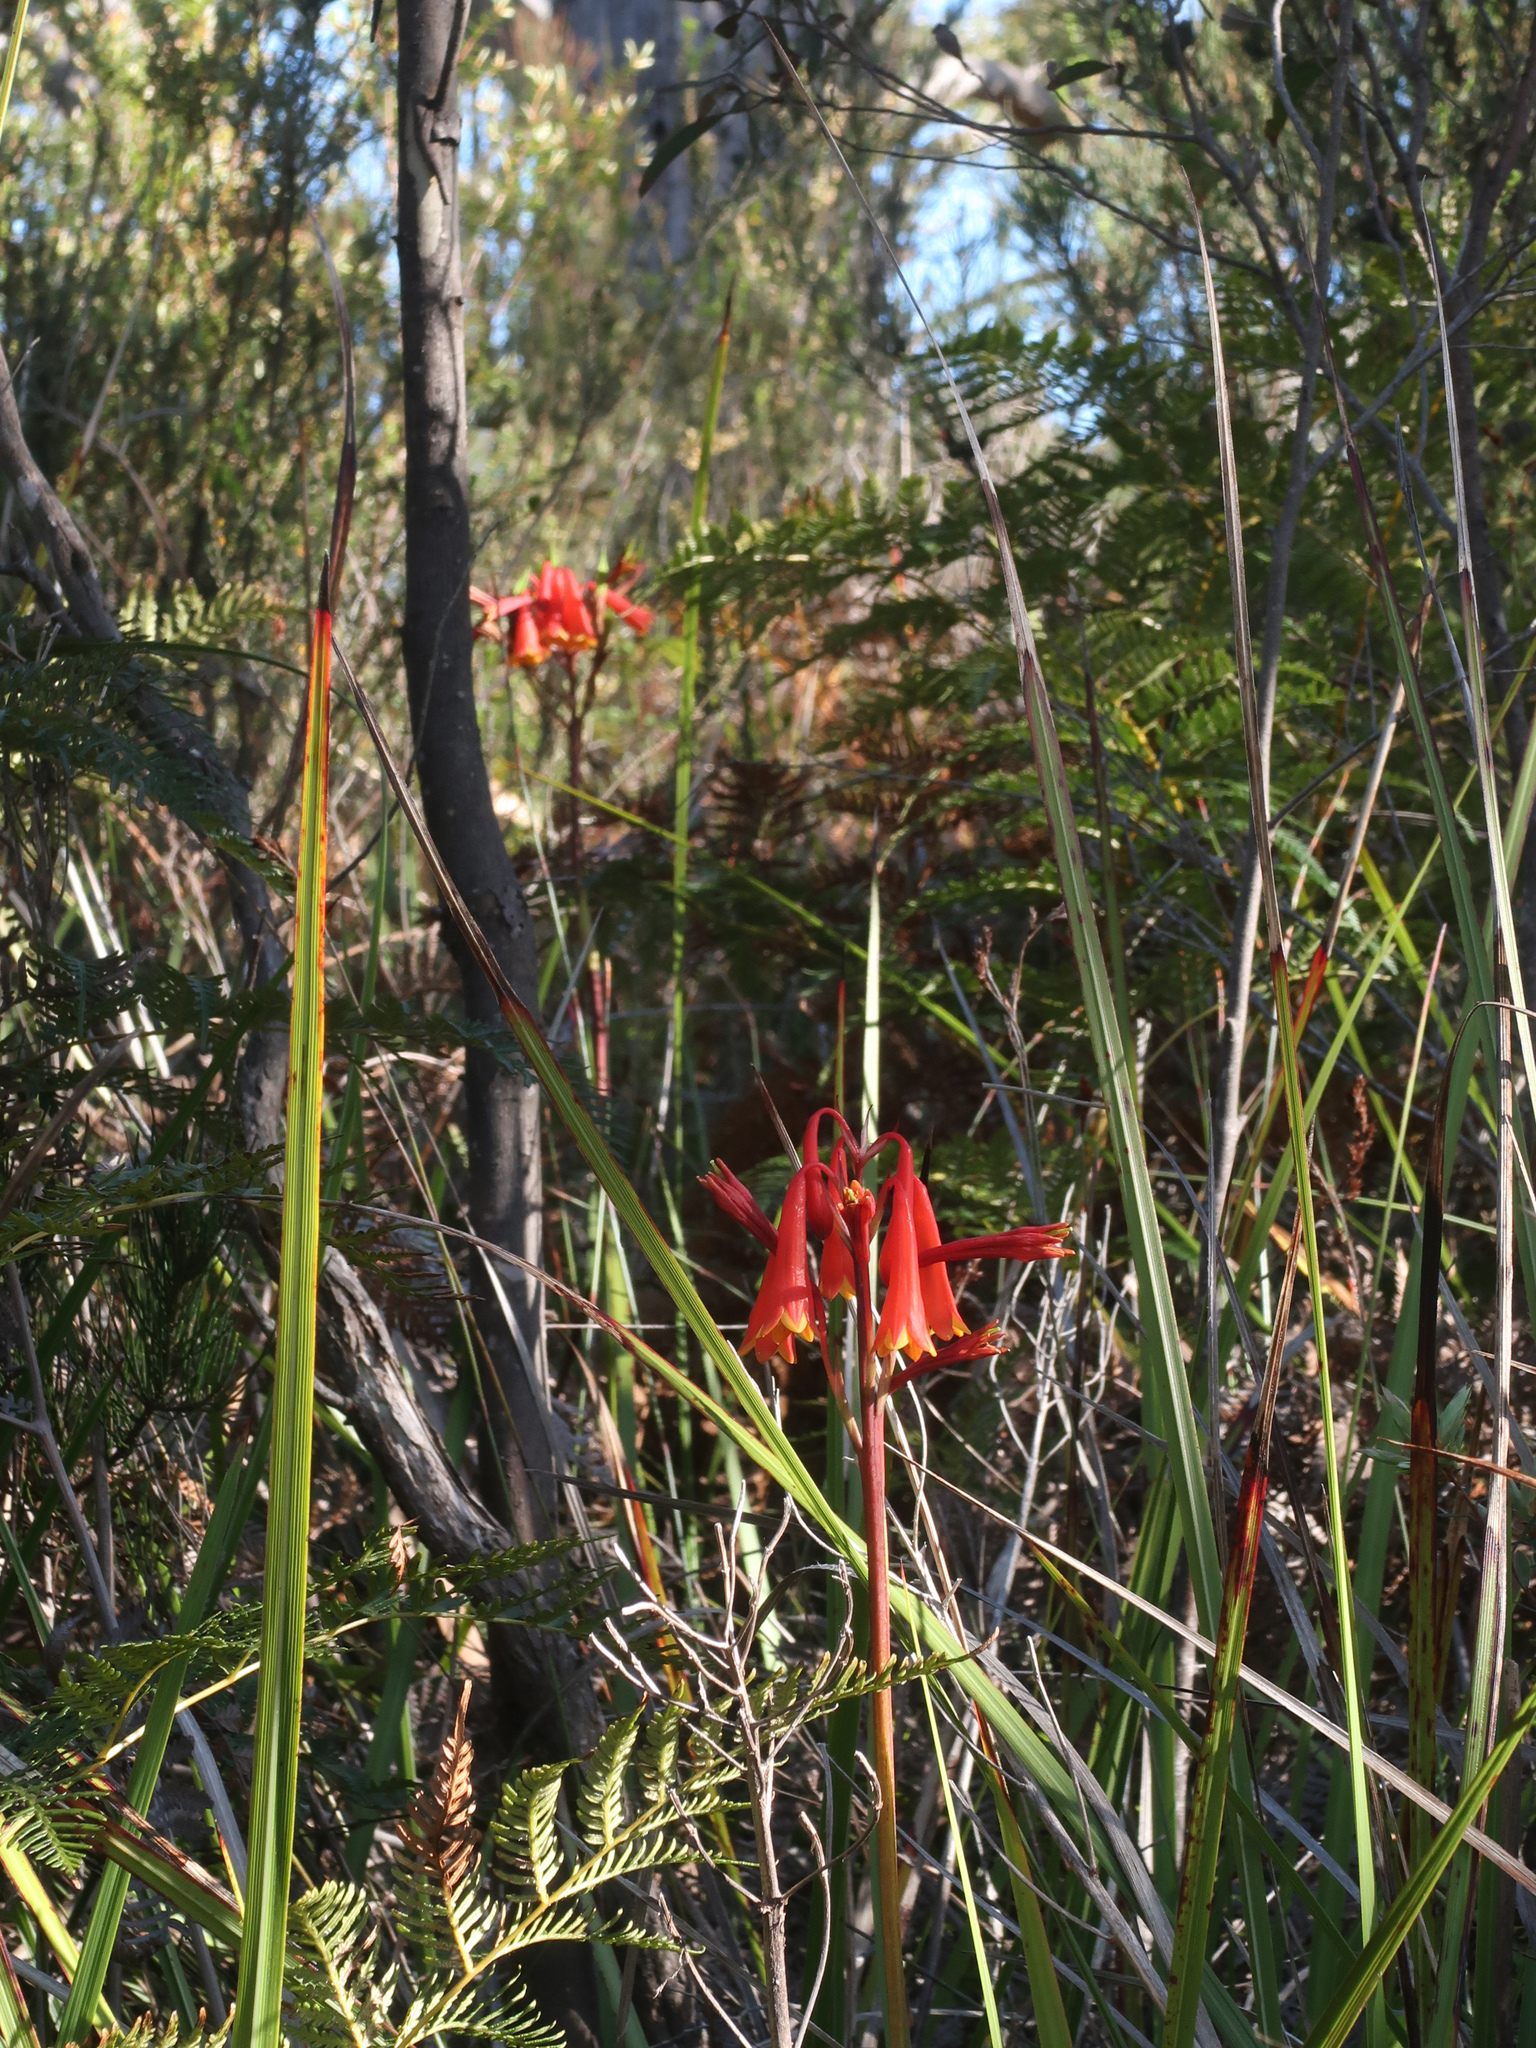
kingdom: Plantae
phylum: Tracheophyta
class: Liliopsida
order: Asparagales
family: Blandfordiaceae
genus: Blandfordia
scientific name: Blandfordia punicea
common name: Tasmanian christmas-bell
